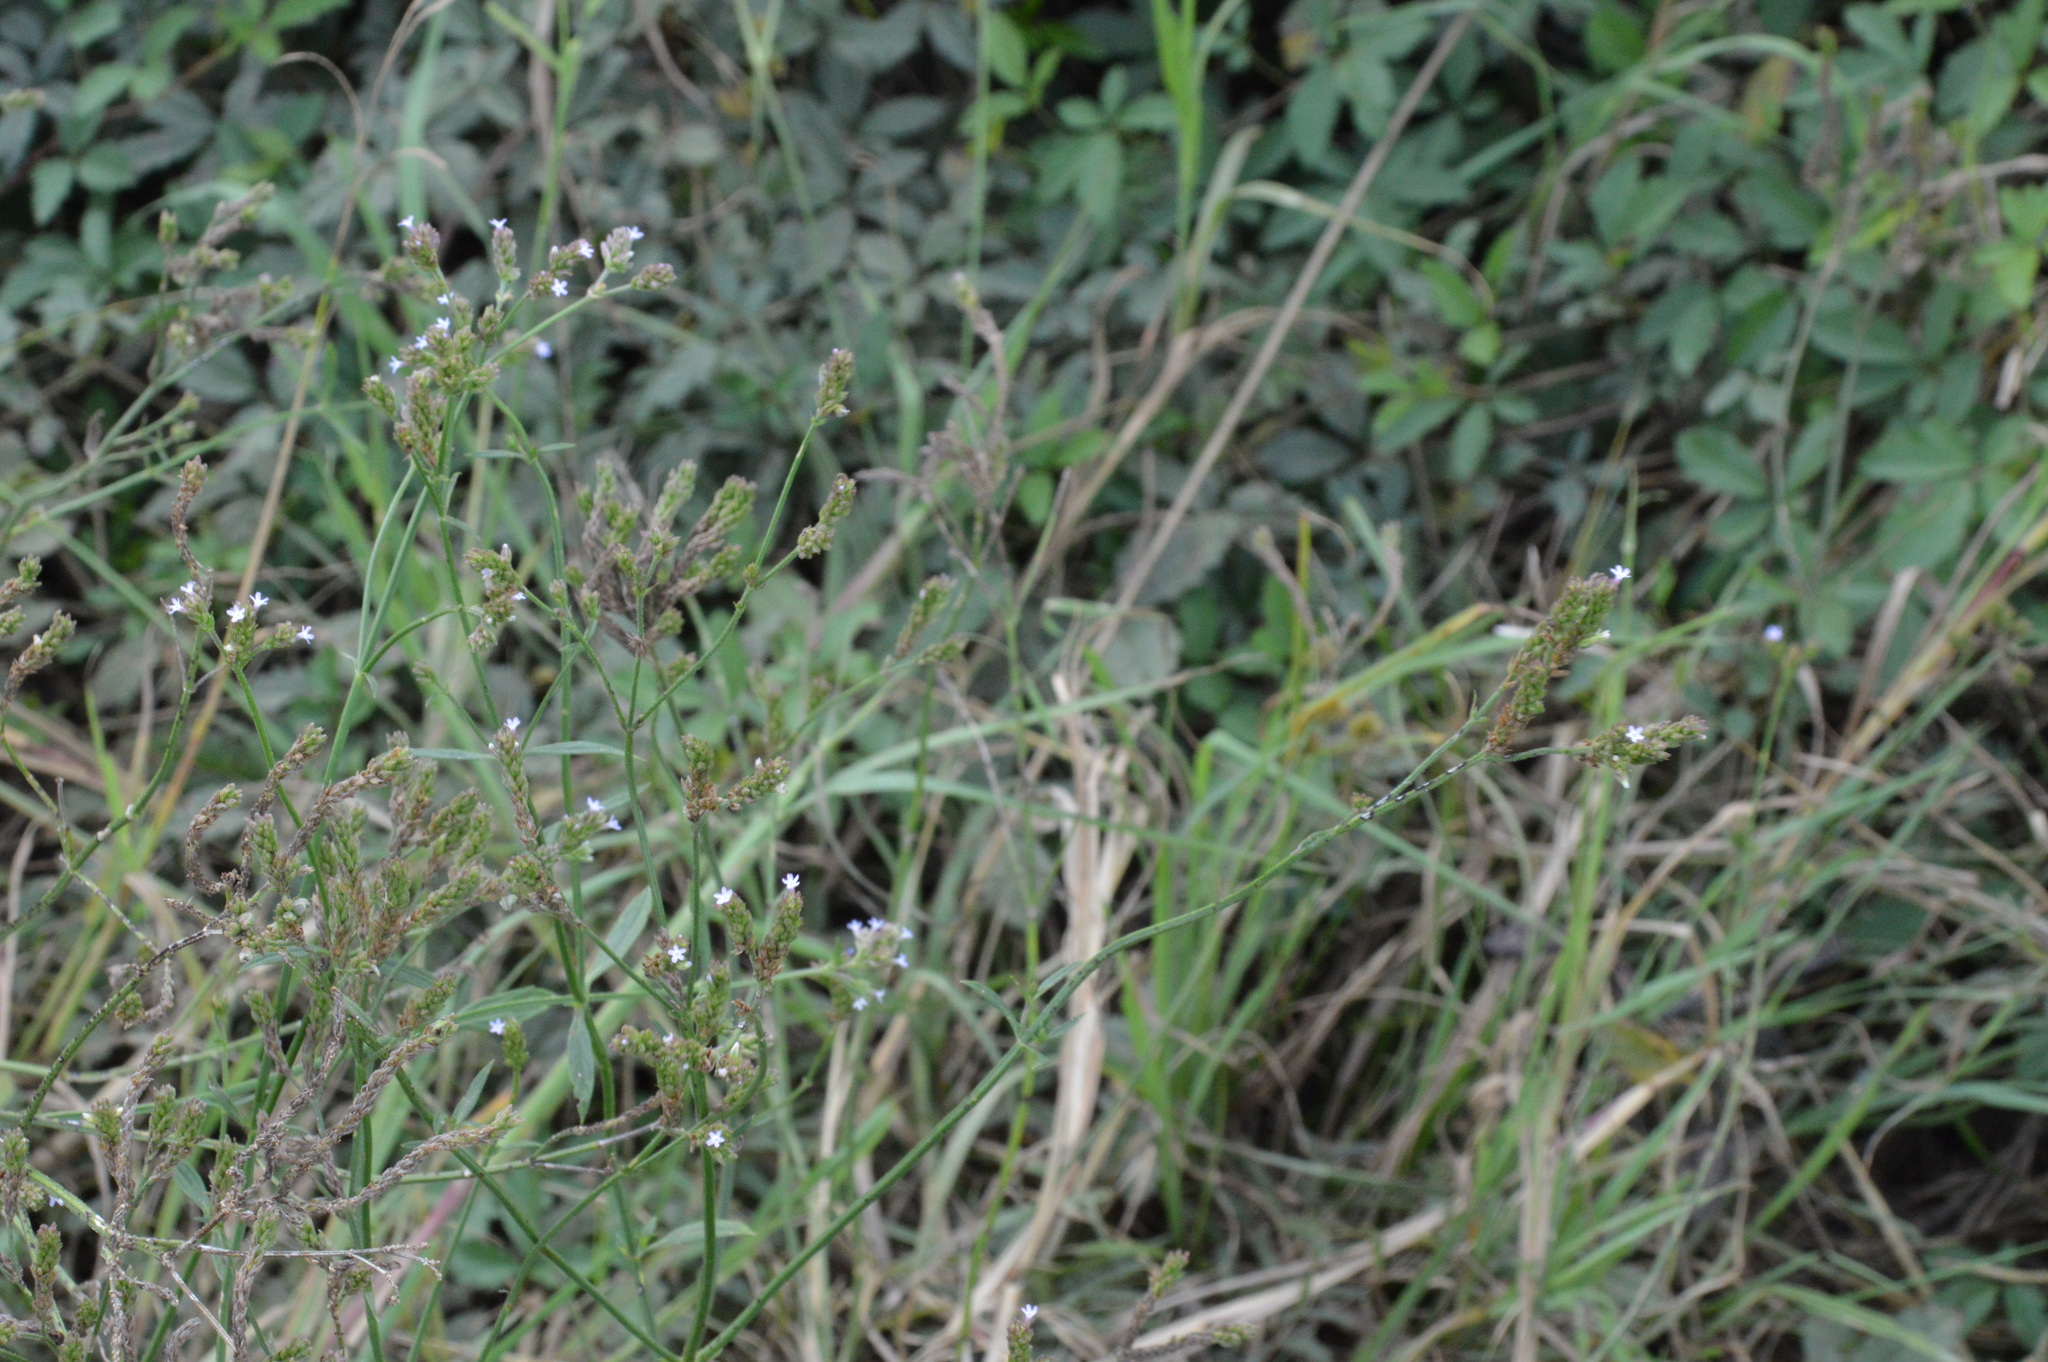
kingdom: Plantae
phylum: Tracheophyta
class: Magnoliopsida
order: Lamiales
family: Verbenaceae
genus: Verbena
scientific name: Verbena brasiliensis
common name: Brazilian vervain
